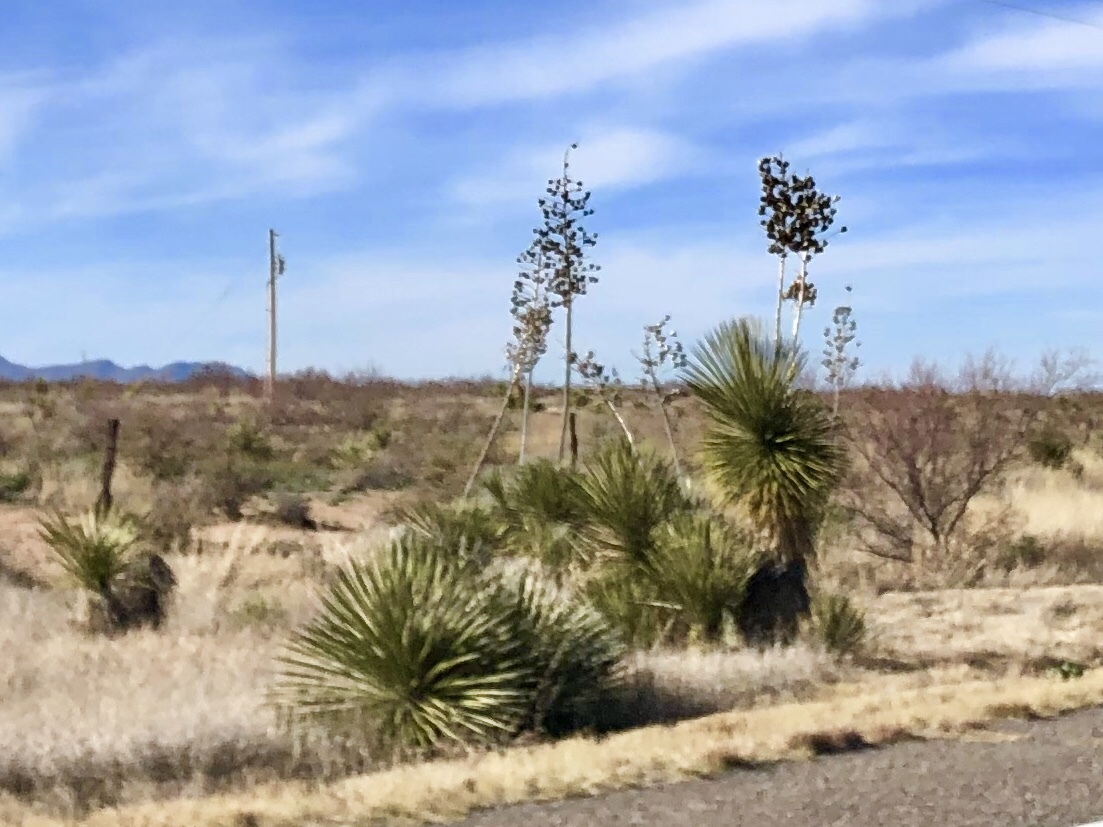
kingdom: Plantae
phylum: Tracheophyta
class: Liliopsida
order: Asparagales
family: Asparagaceae
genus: Yucca
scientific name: Yucca elata
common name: Palmella
